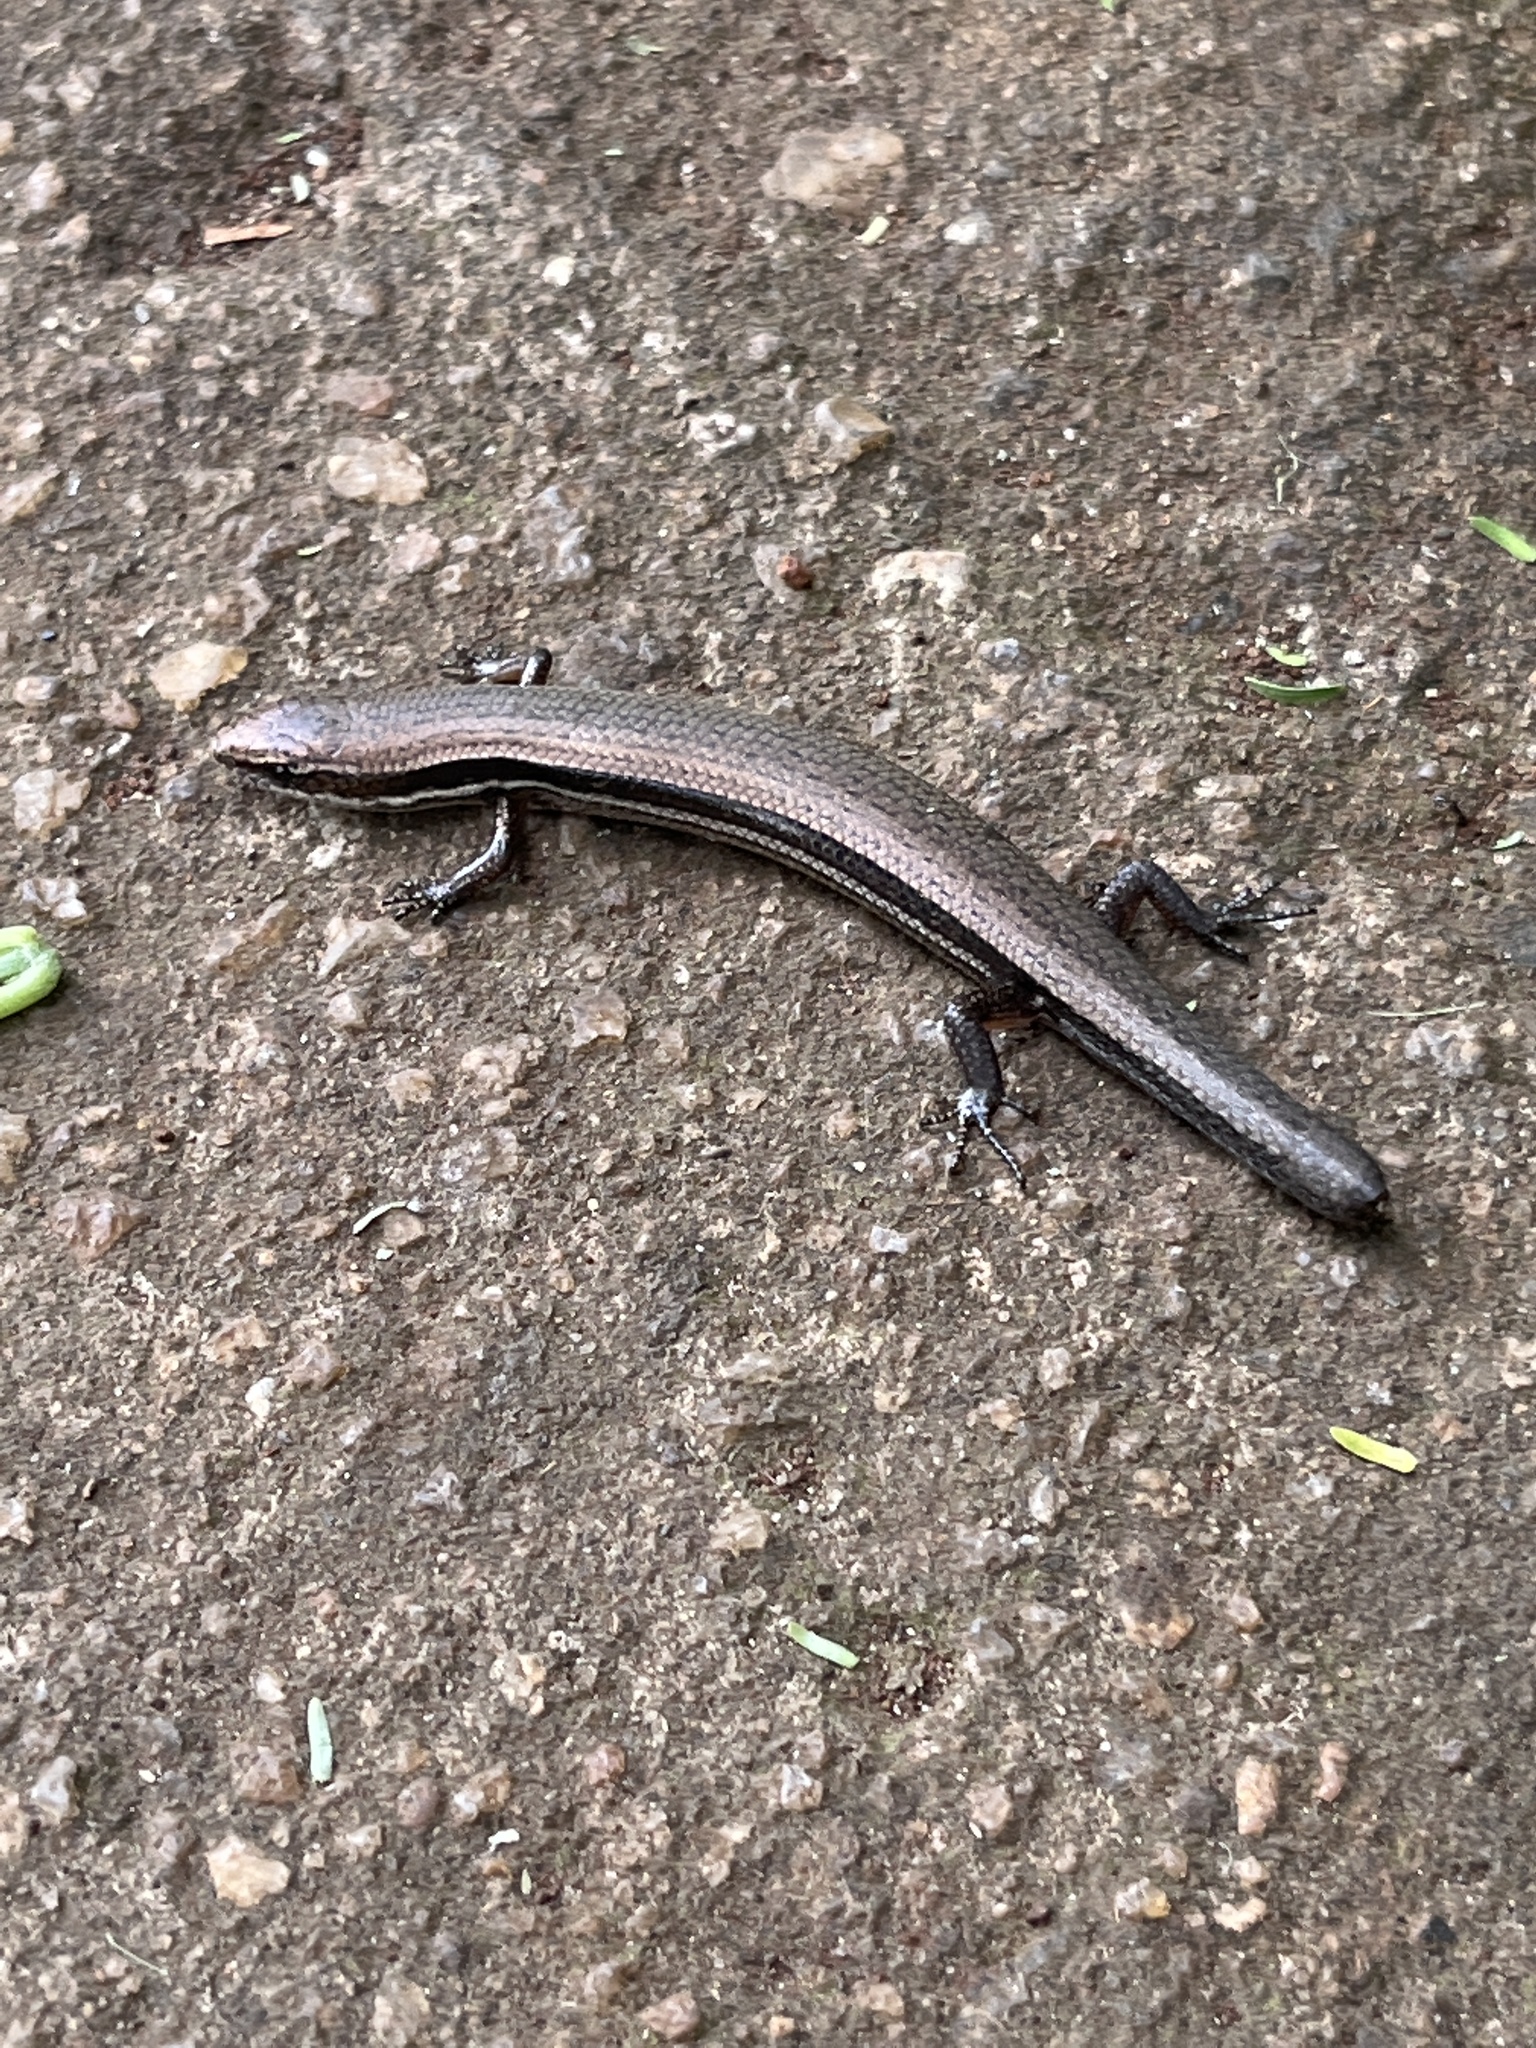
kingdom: Animalia
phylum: Chordata
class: Squamata
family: Scincidae
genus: Panaspis
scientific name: Panaspis wahlbergii
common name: Angolan snake-eyed skink
